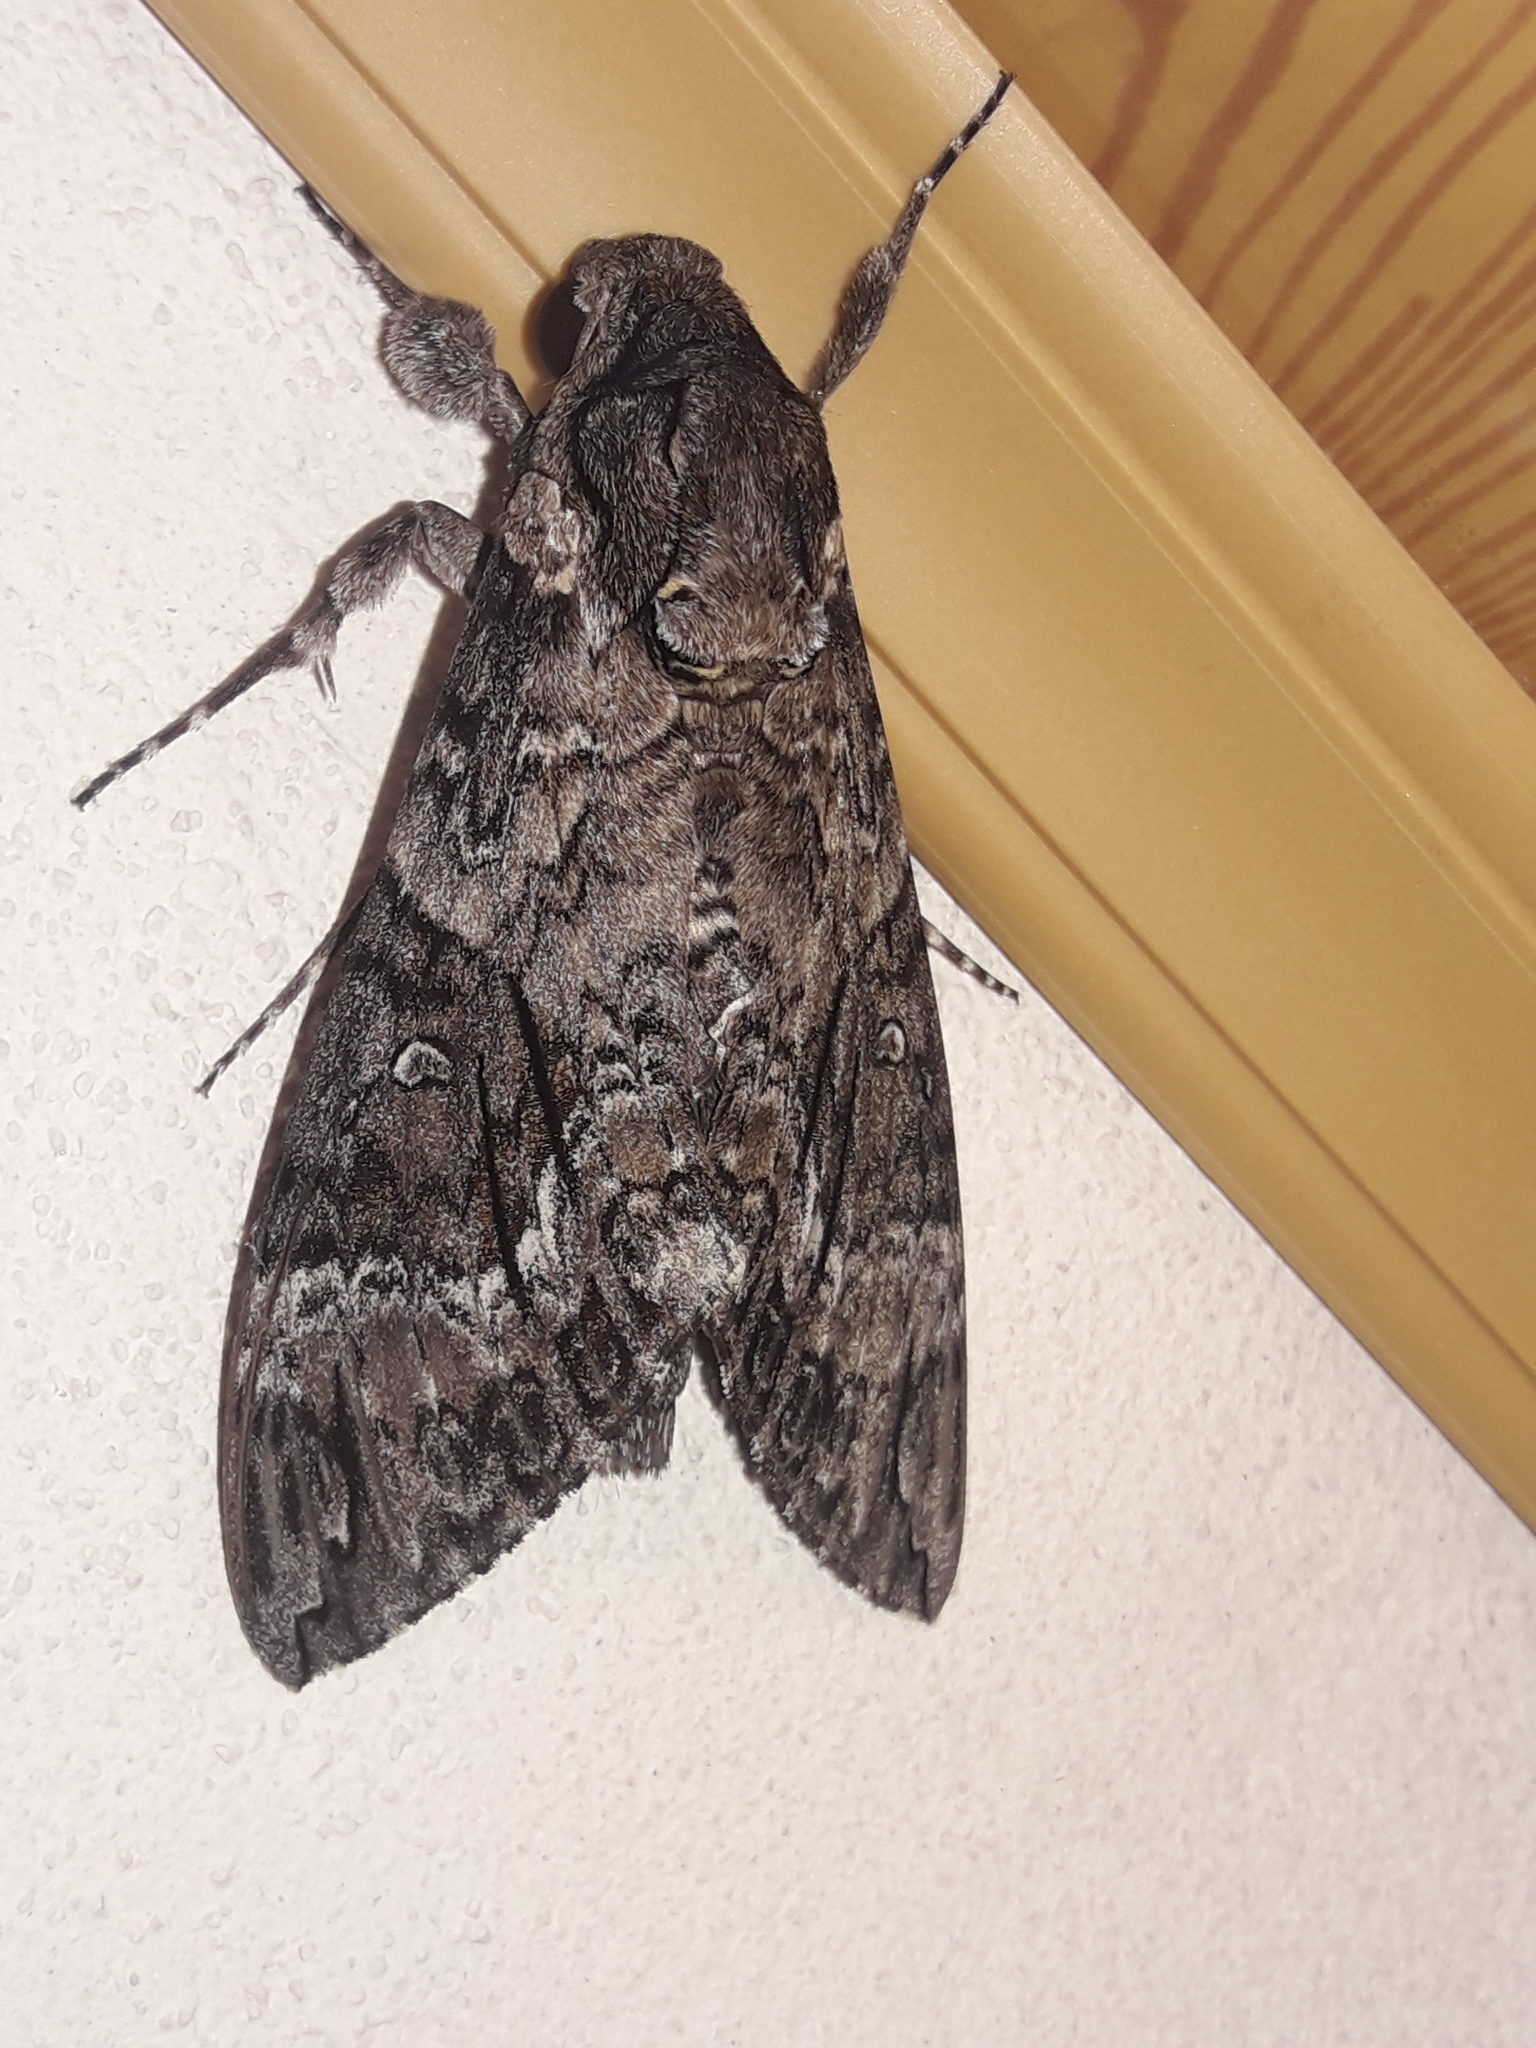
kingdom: Animalia
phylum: Arthropoda
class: Insecta
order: Lepidoptera
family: Sphingidae
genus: Agrius
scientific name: Agrius cingulata
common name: Pink-spotted hawkmoth
